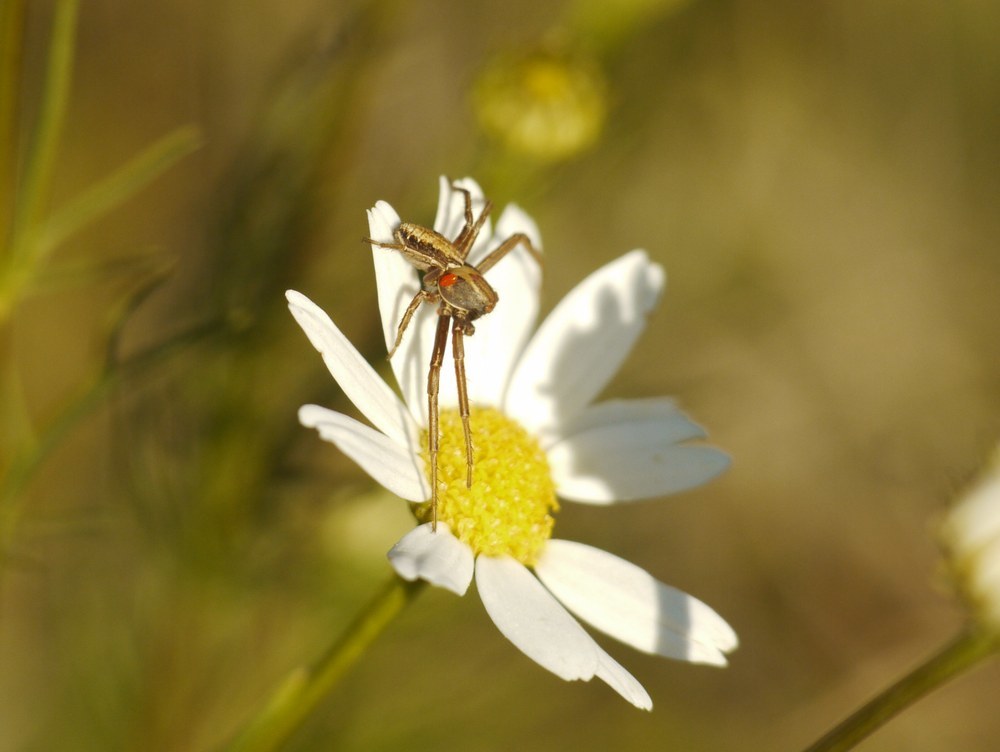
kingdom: Animalia
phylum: Arthropoda
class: Arachnida
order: Araneae
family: Thomisidae
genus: Spiracme
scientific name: Spiracme striatipes
